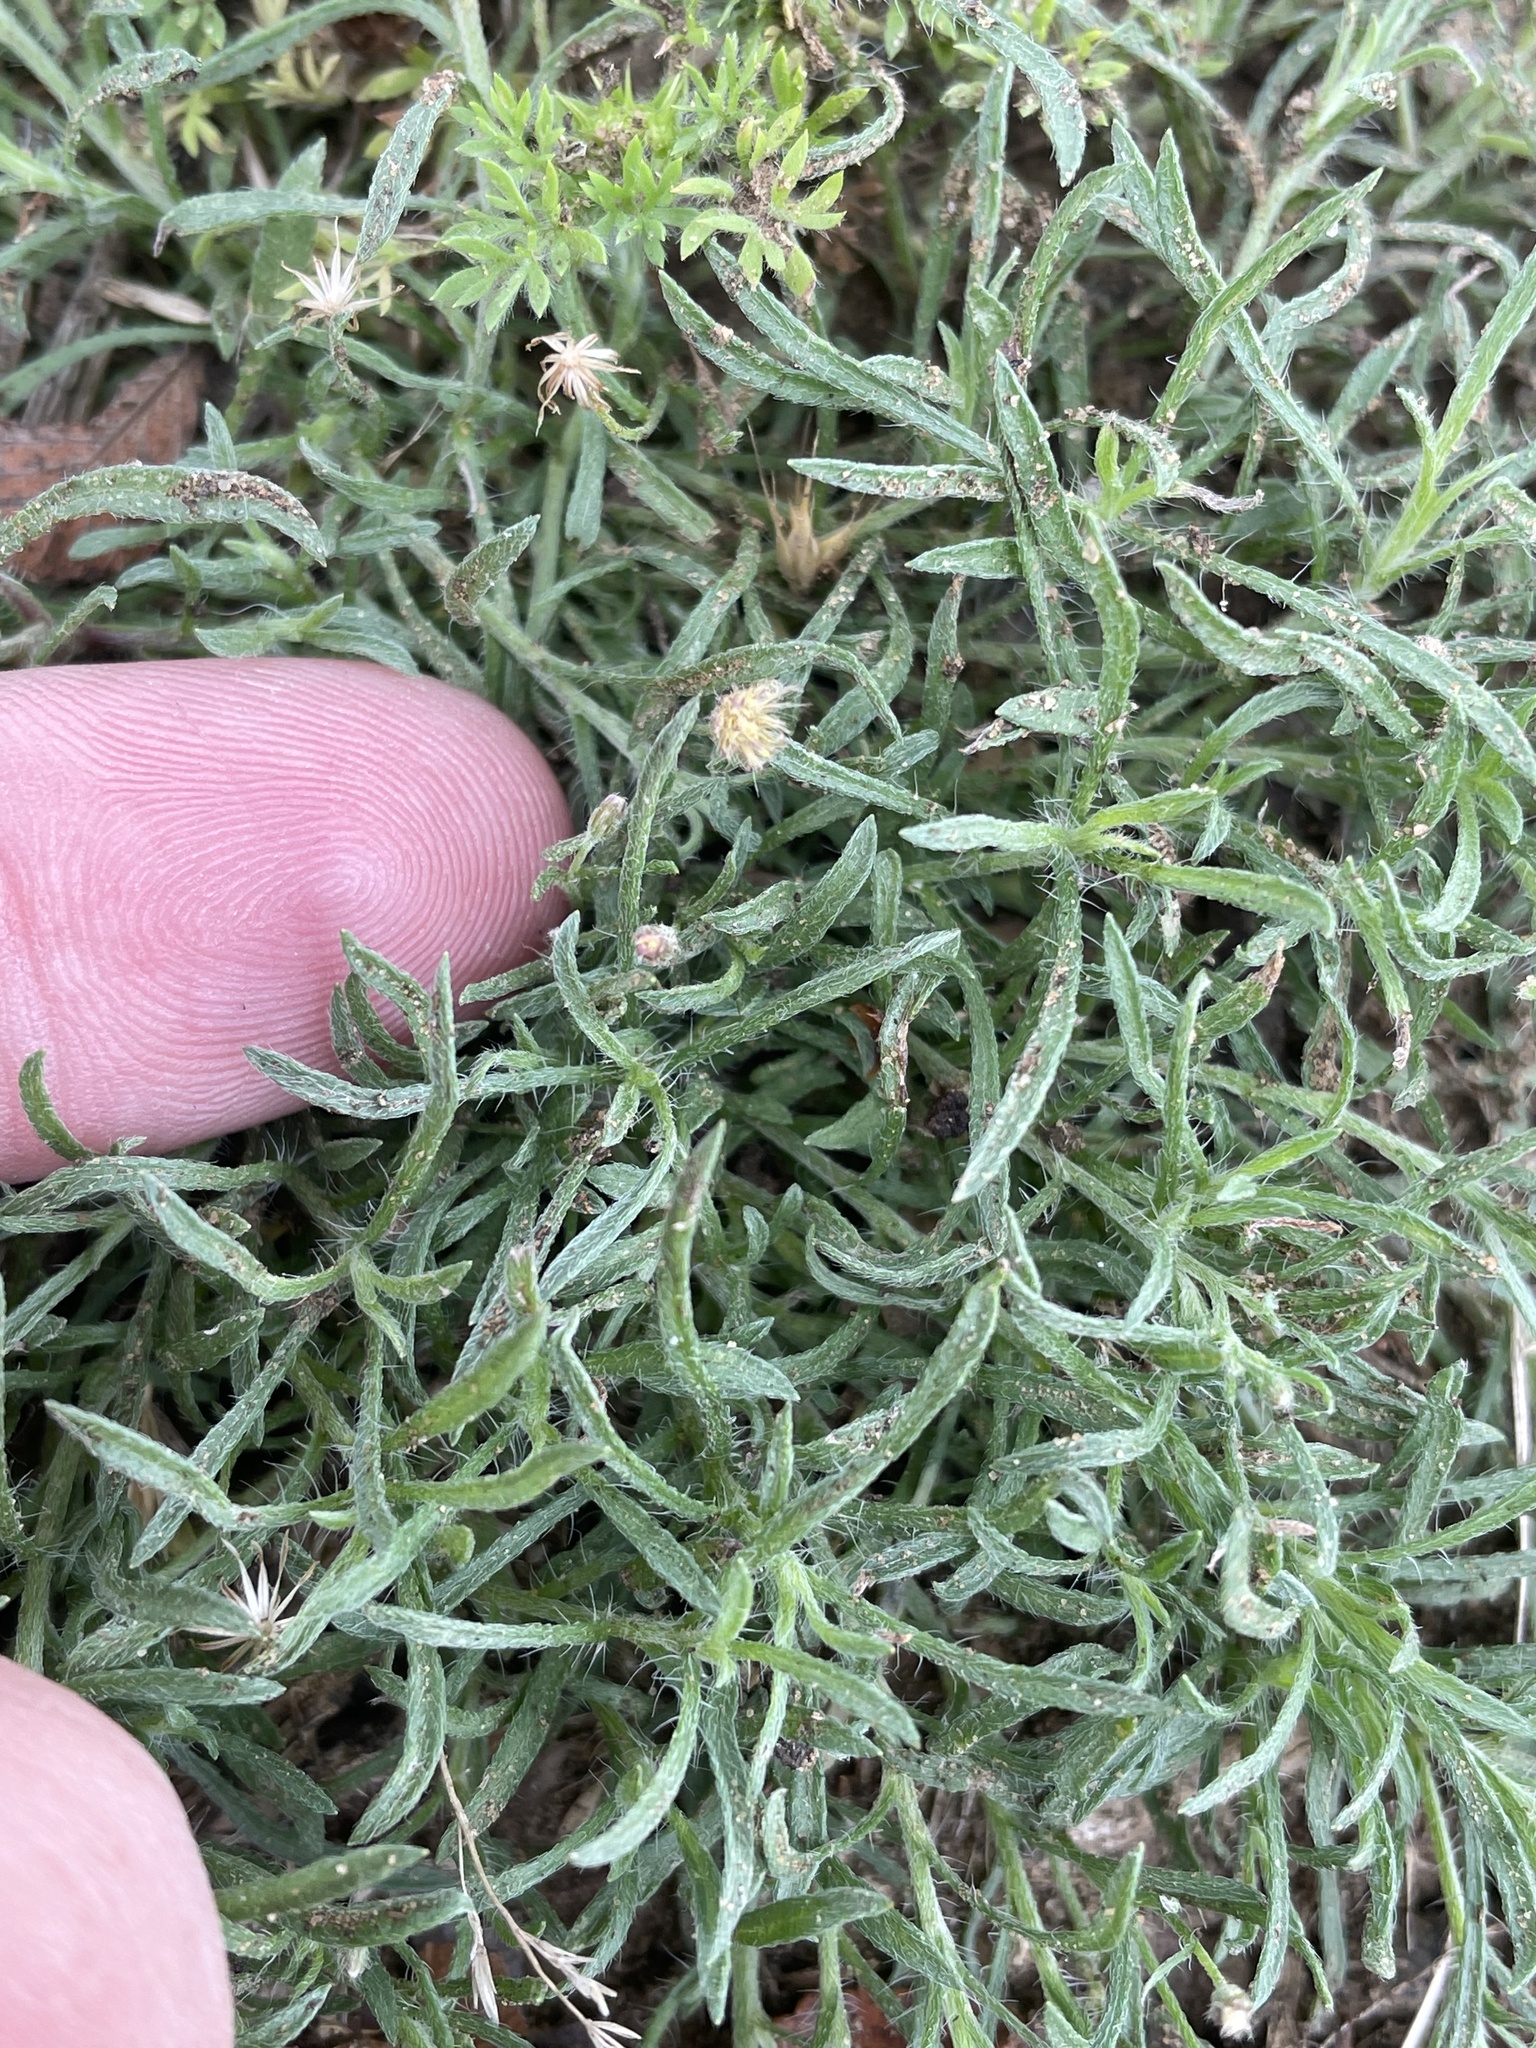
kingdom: Plantae
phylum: Tracheophyta
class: Magnoliopsida
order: Asterales
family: Asteraceae
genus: Erigeron
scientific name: Erigeron divaricatus
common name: Dwarf conyza
